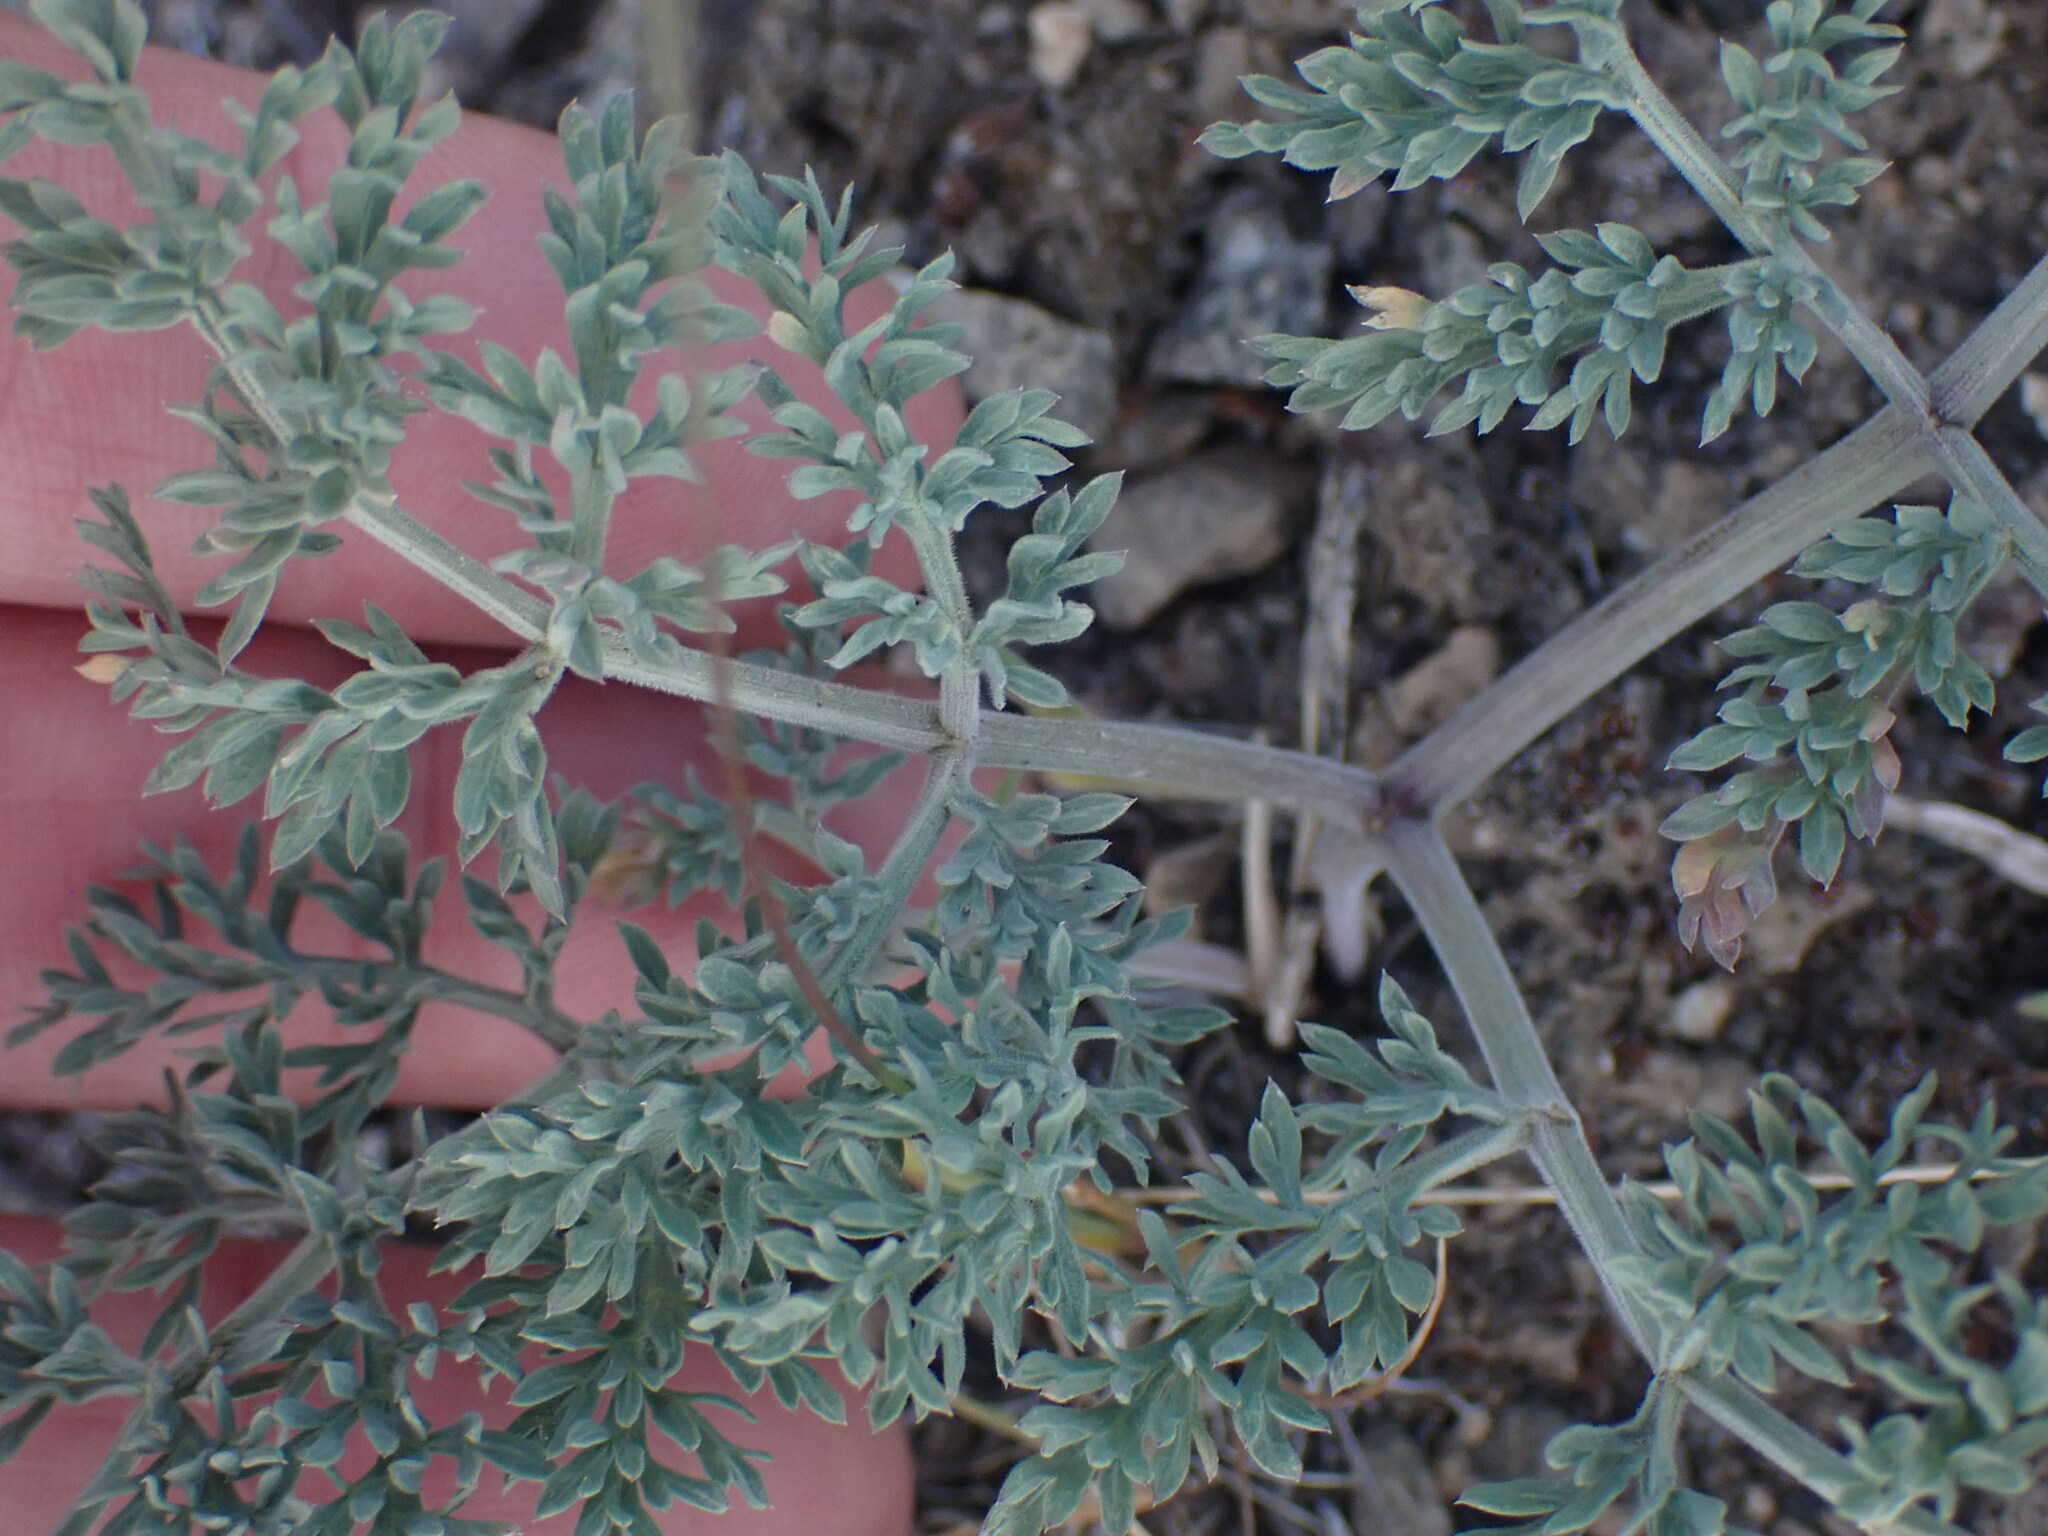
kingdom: Plantae
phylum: Tracheophyta
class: Magnoliopsida
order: Apiales
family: Apiaceae
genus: Lomatium
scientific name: Lomatium macrocarpum
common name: Big-seed biscuitroot
